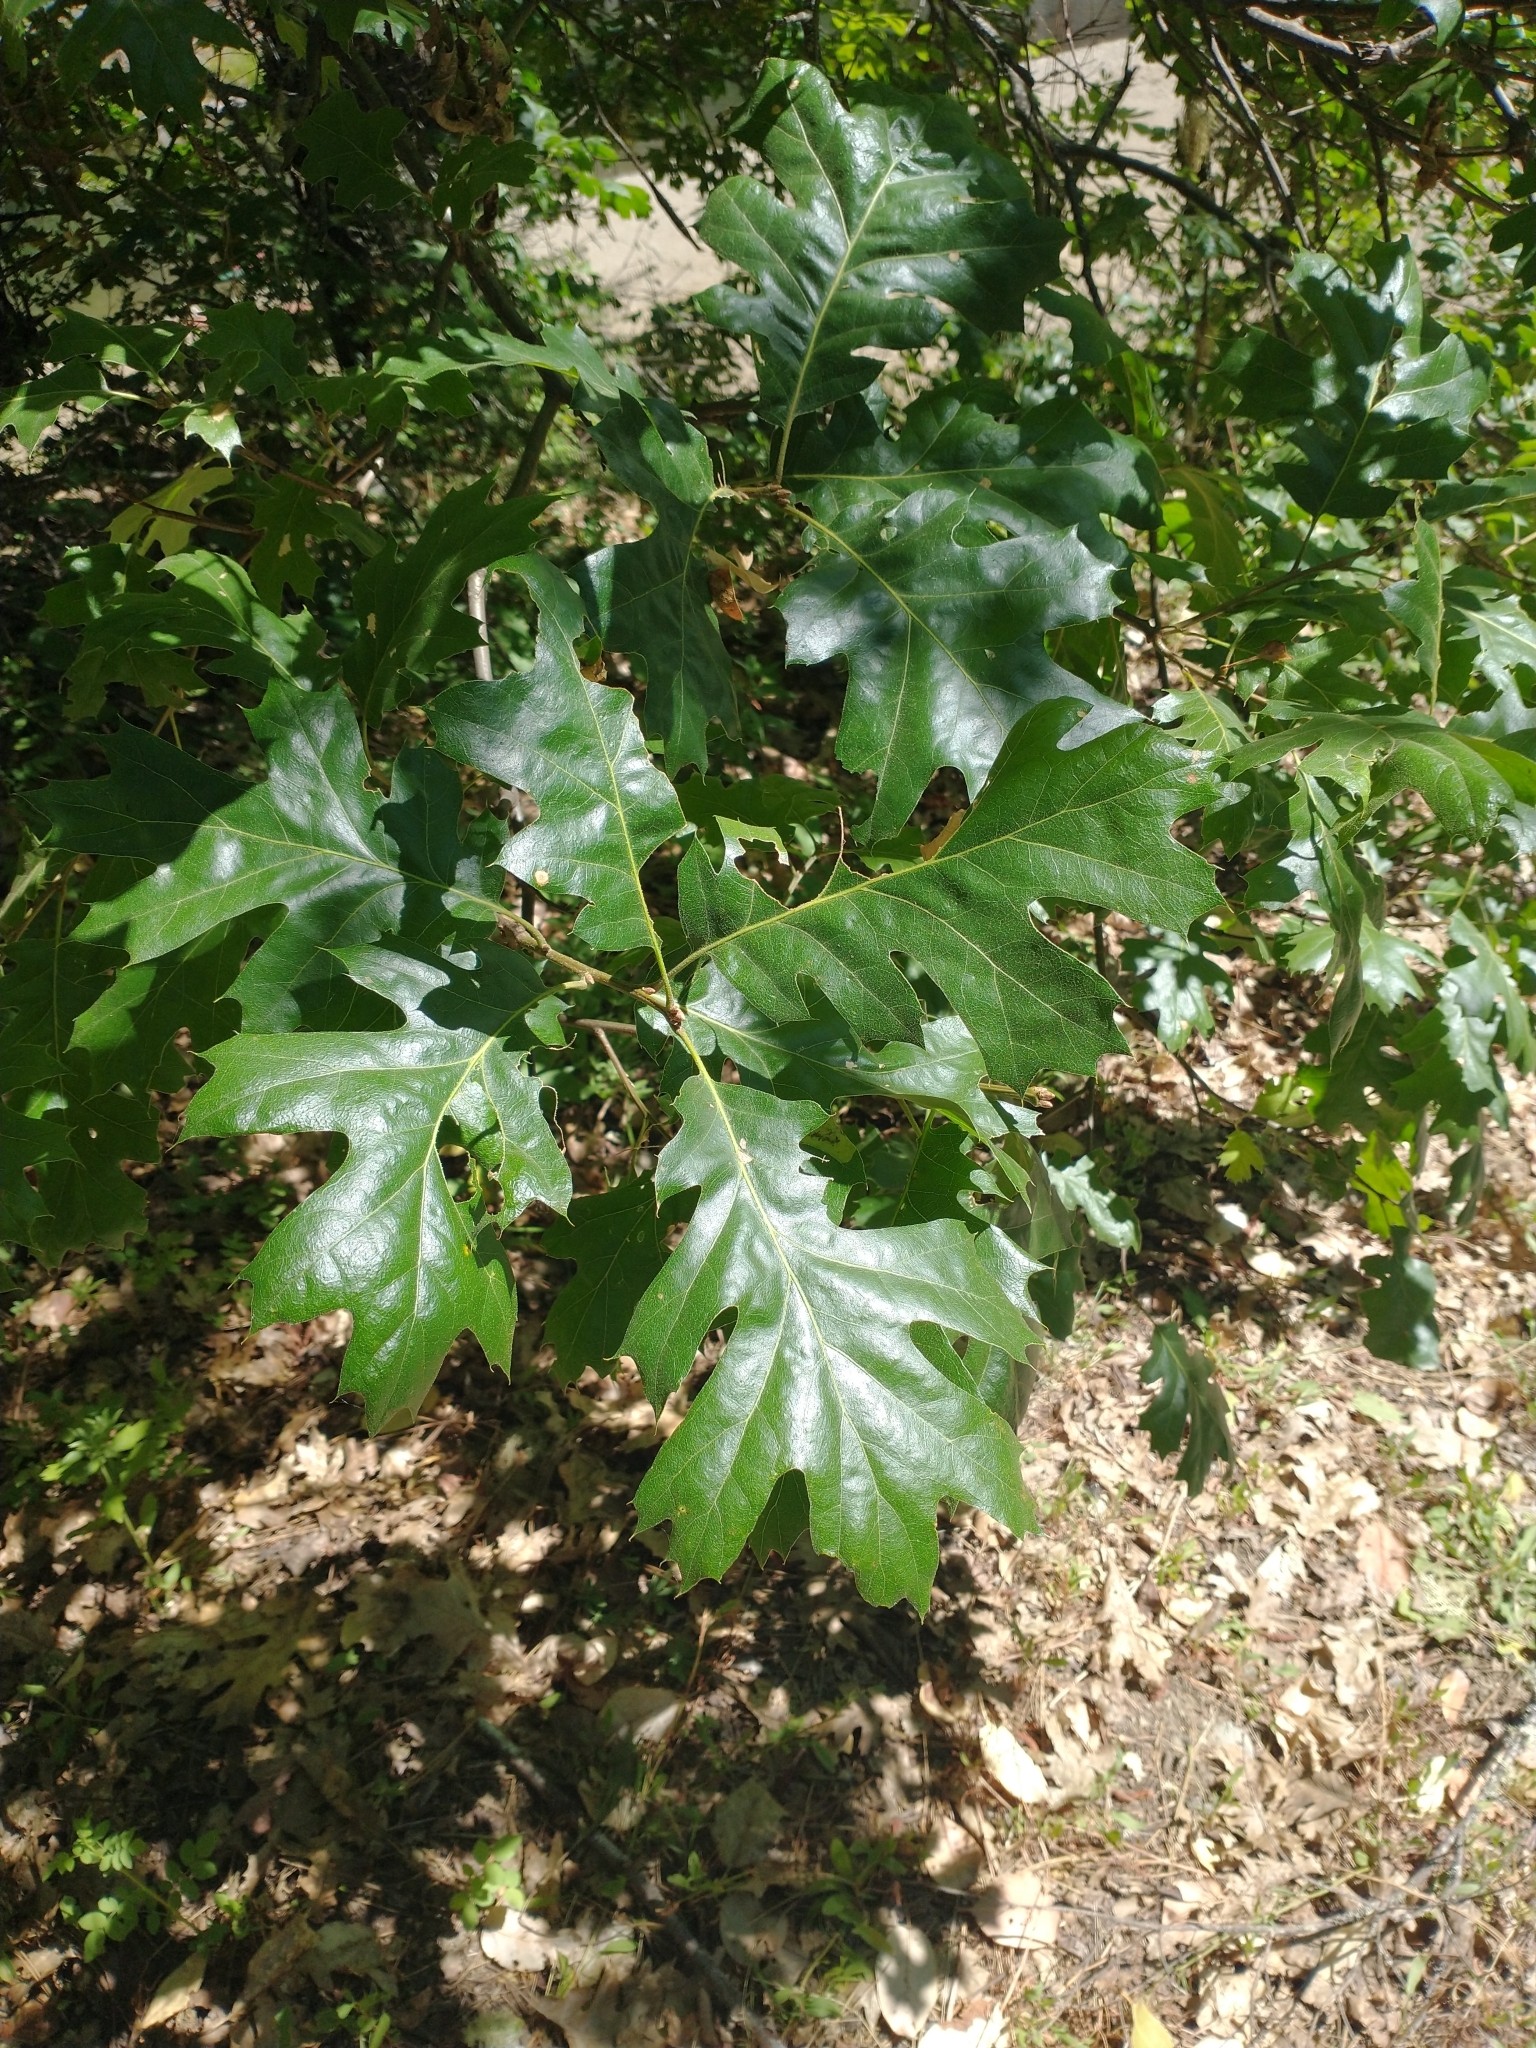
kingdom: Plantae
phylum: Tracheophyta
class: Magnoliopsida
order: Fagales
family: Fagaceae
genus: Quercus
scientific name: Quercus kelloggii
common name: California black oak
